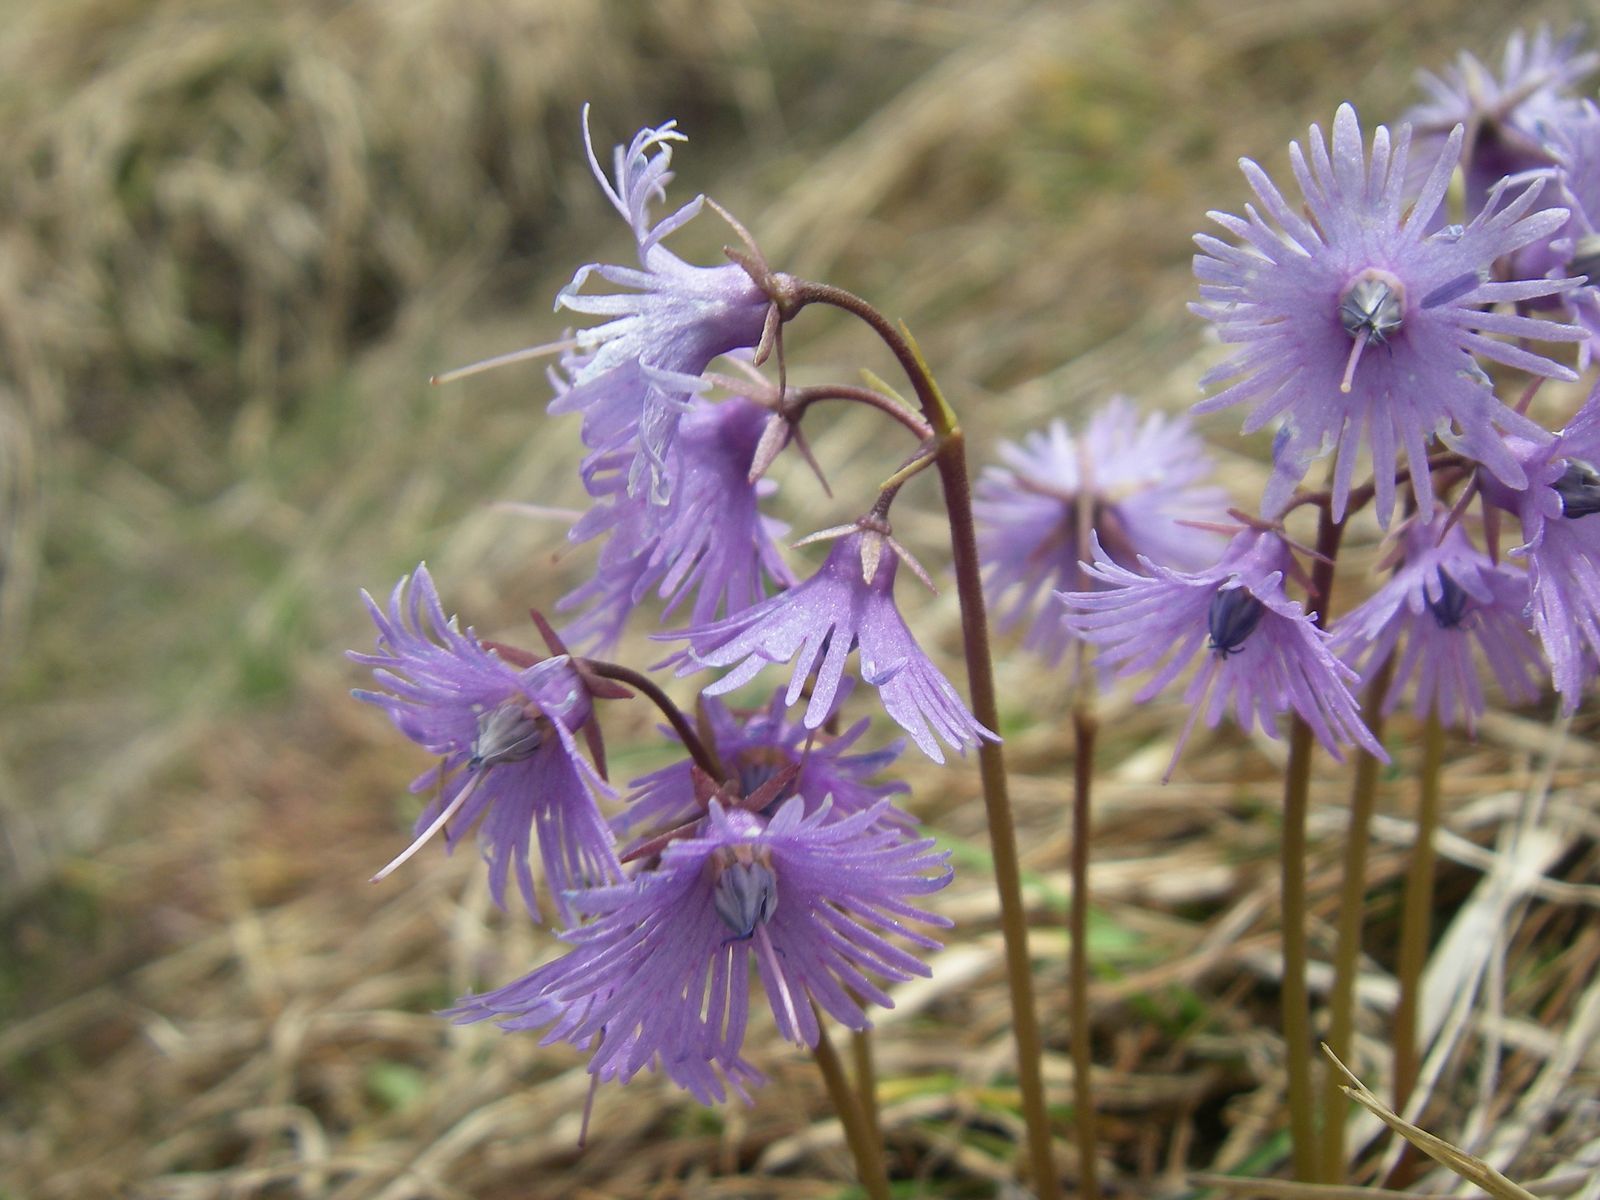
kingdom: Plantae
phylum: Tracheophyta
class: Magnoliopsida
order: Ericales
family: Primulaceae
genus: Soldanella
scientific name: Soldanella alpina
